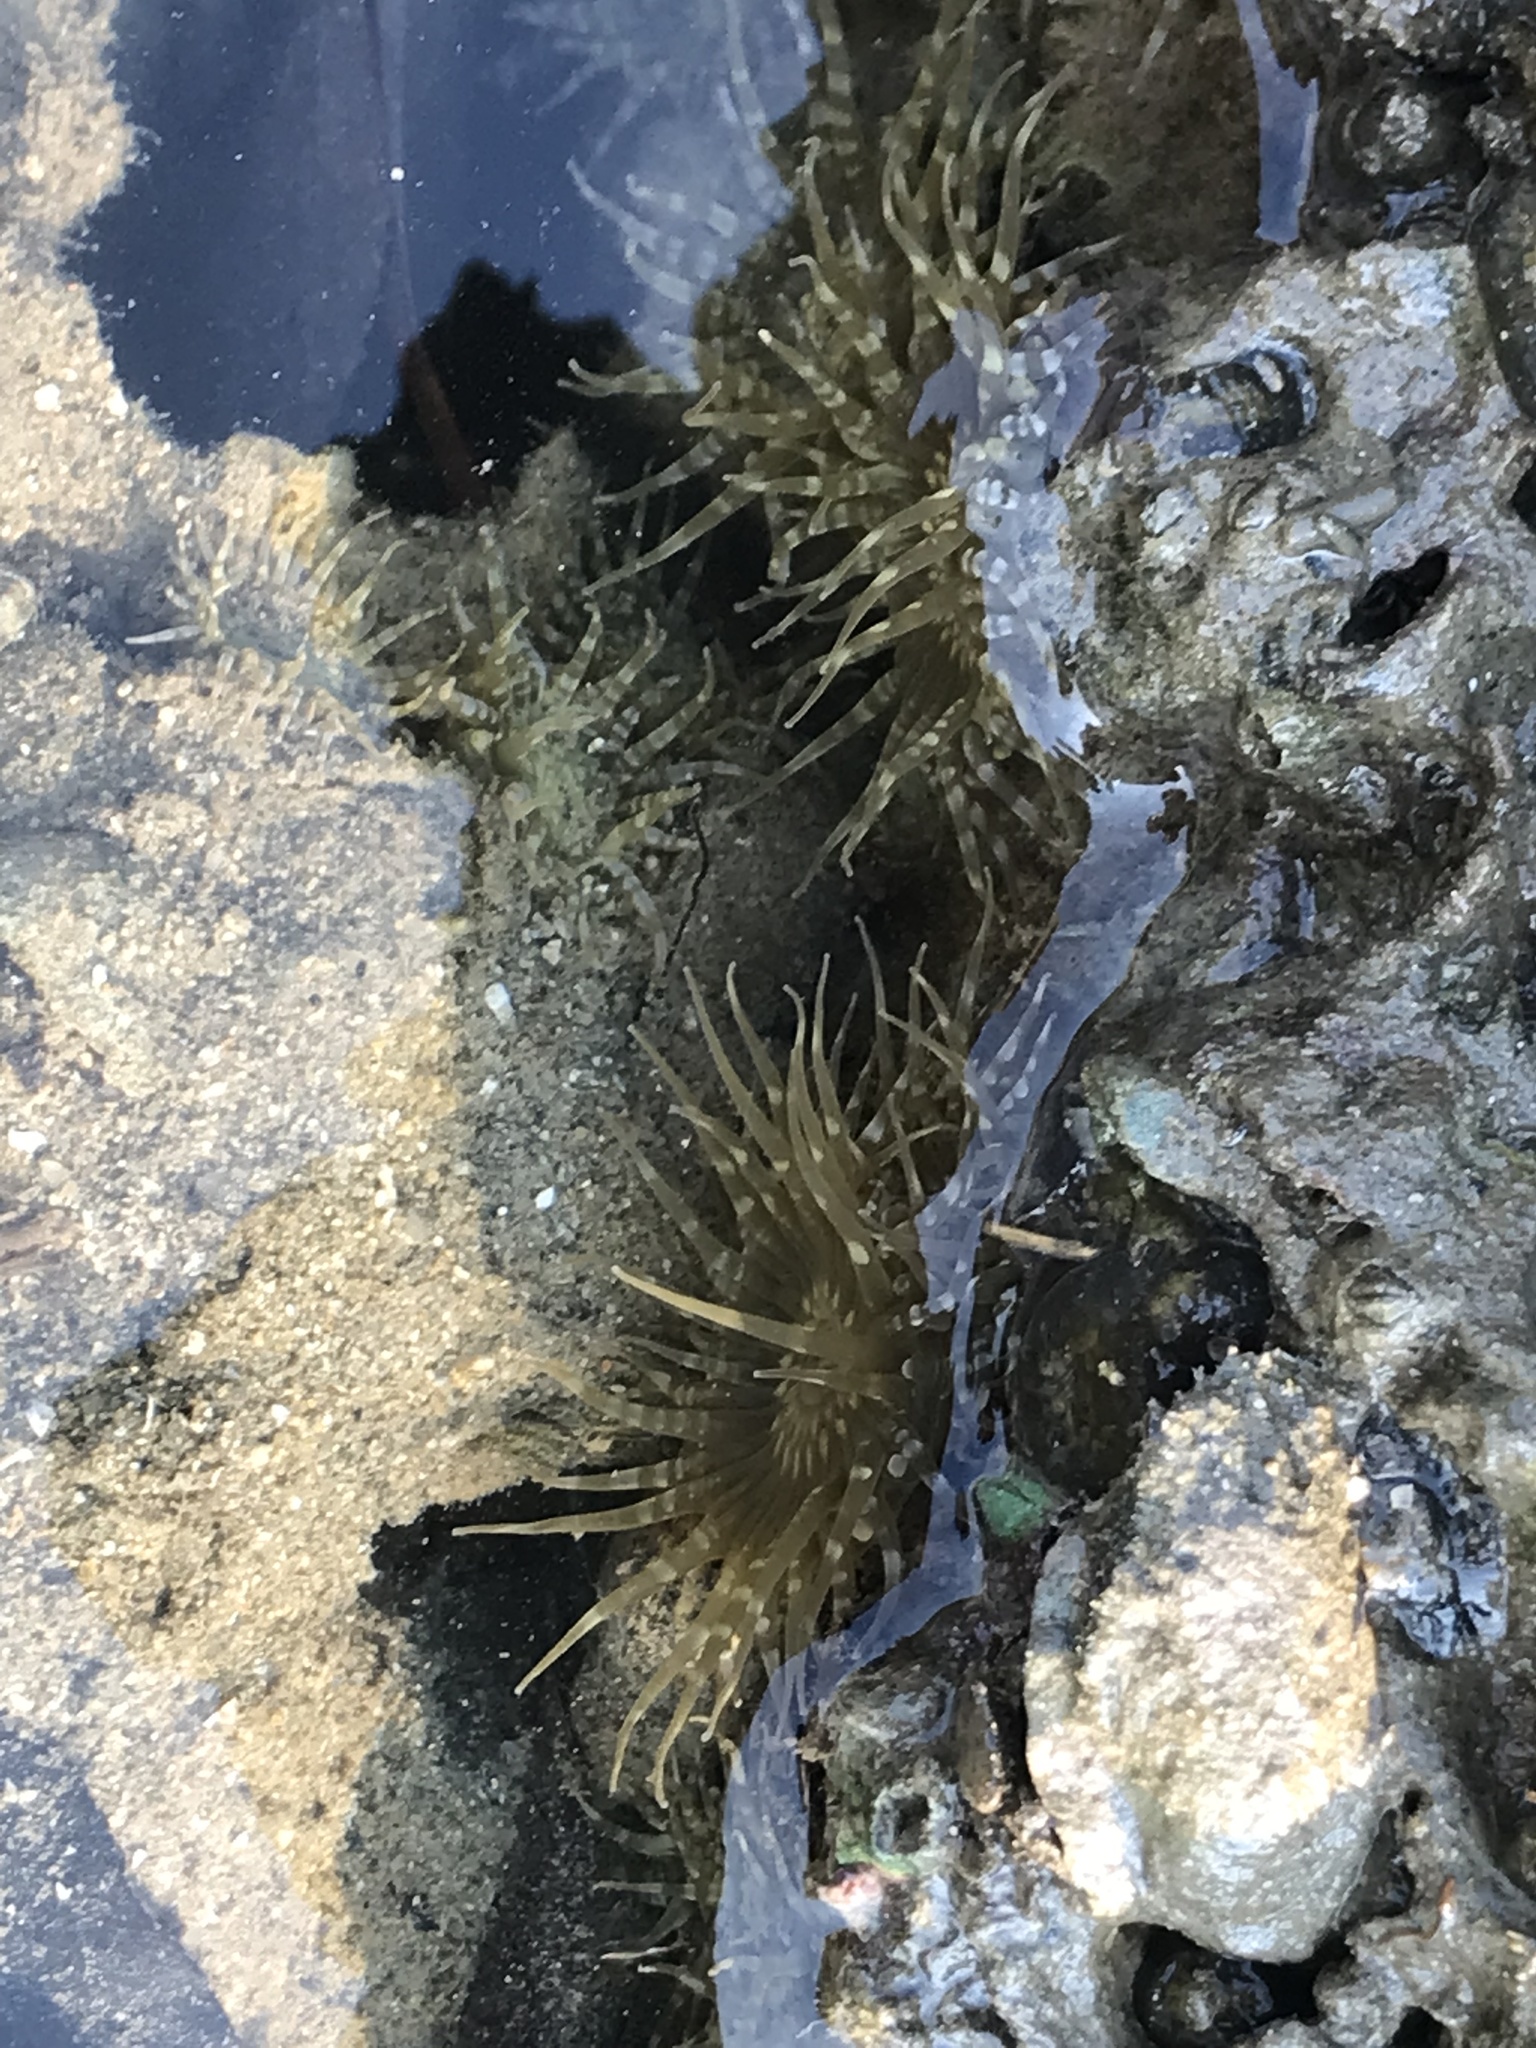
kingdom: Animalia
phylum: Cnidaria
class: Anthozoa
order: Actiniaria
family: Actiniidae
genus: Anthopleura
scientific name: Anthopleura dixoniana
